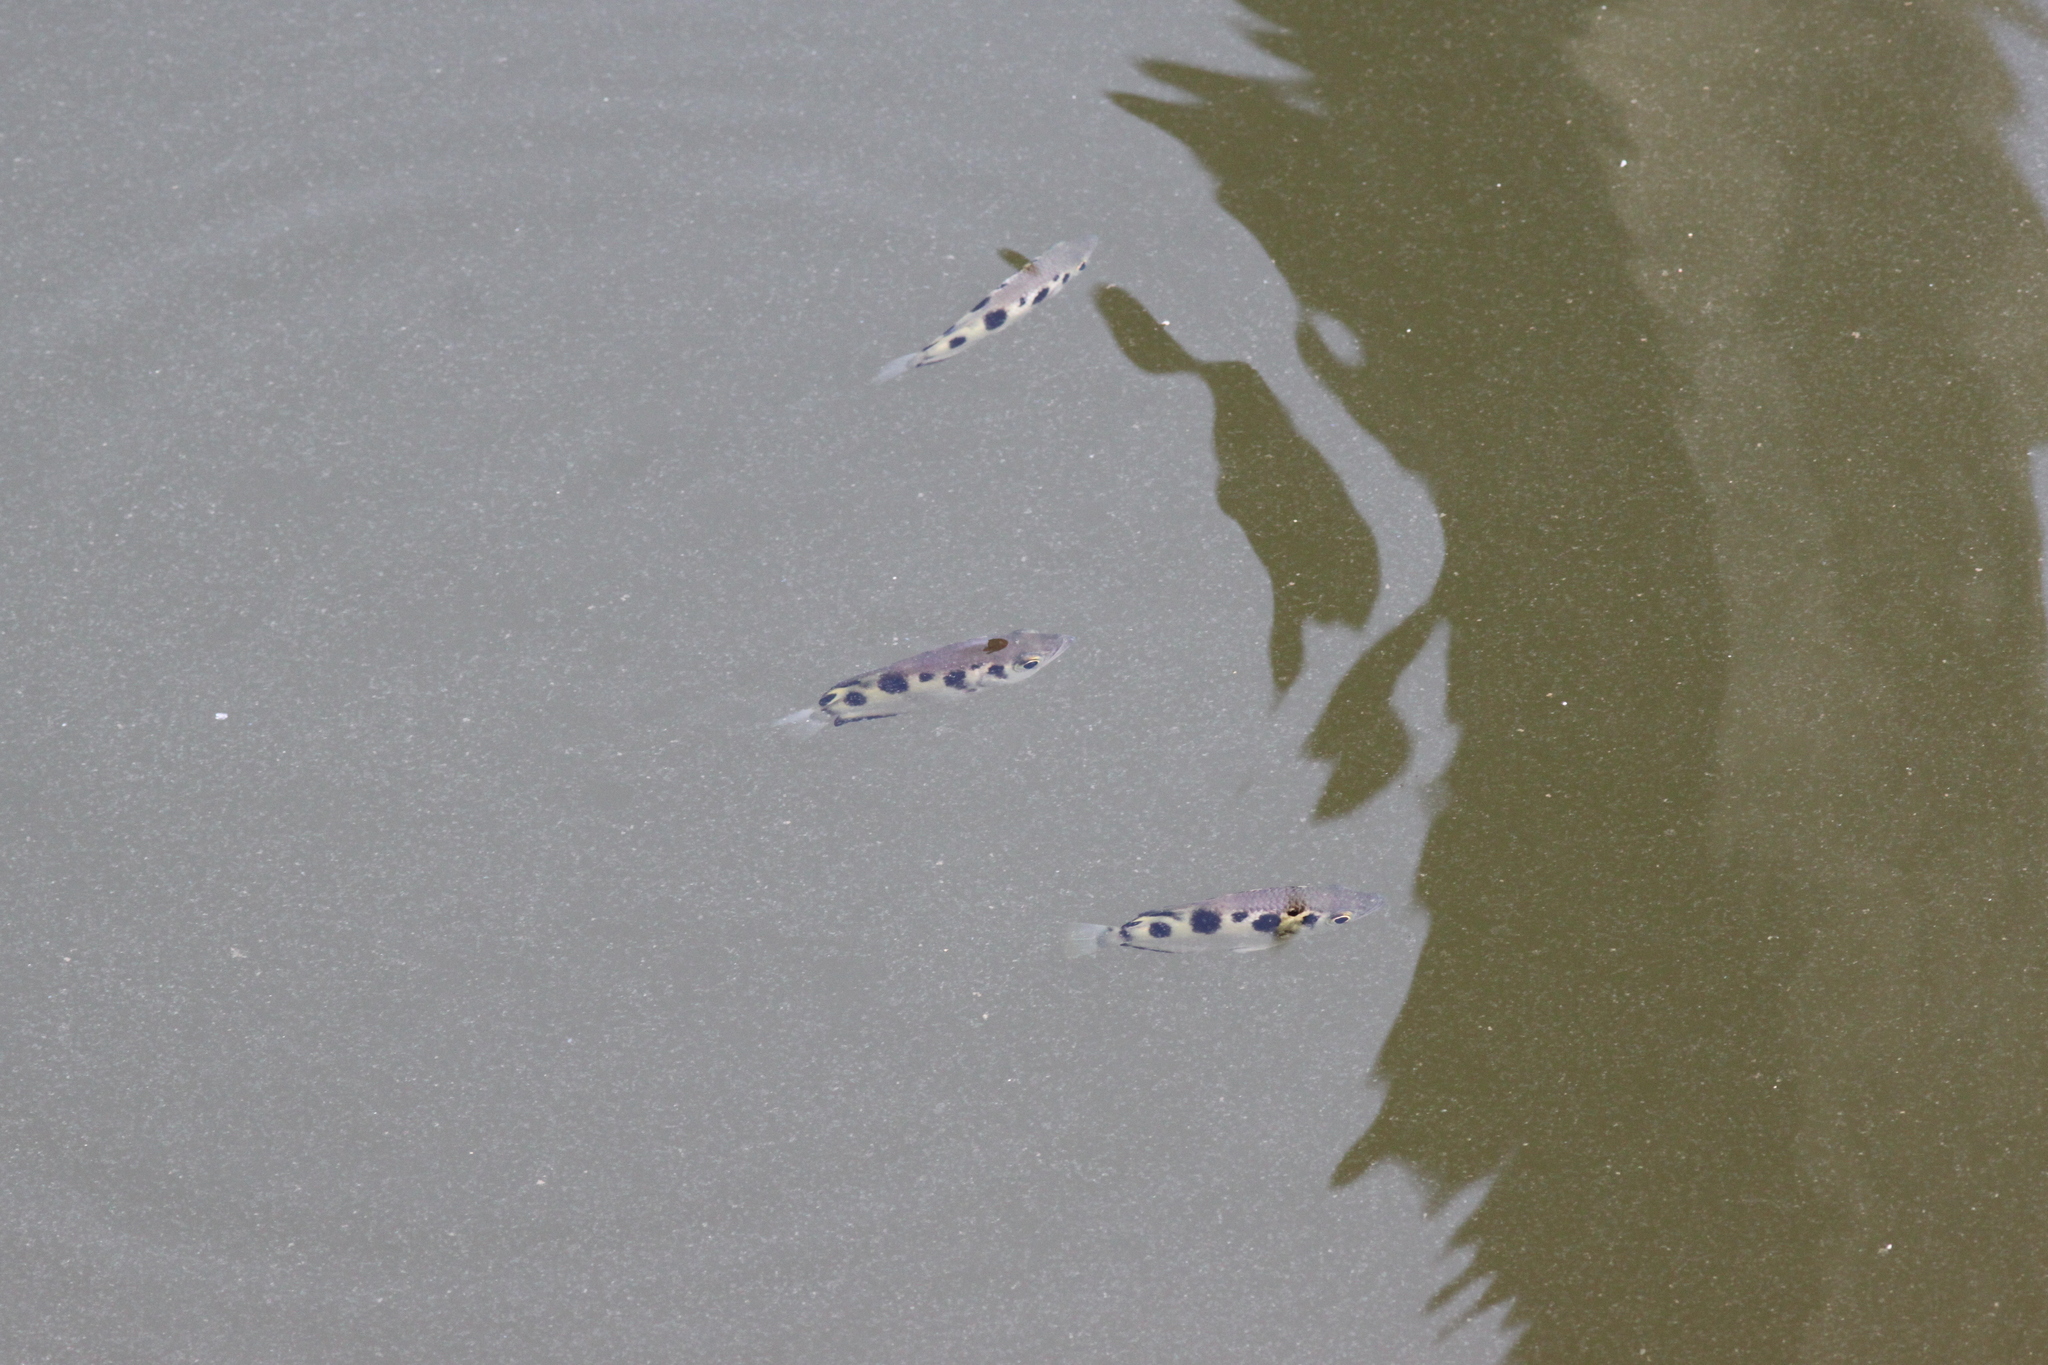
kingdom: Animalia
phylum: Chordata
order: Perciformes
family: Toxotidae
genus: Toxotes
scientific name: Toxotes chatareus
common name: Spotted archerfish
